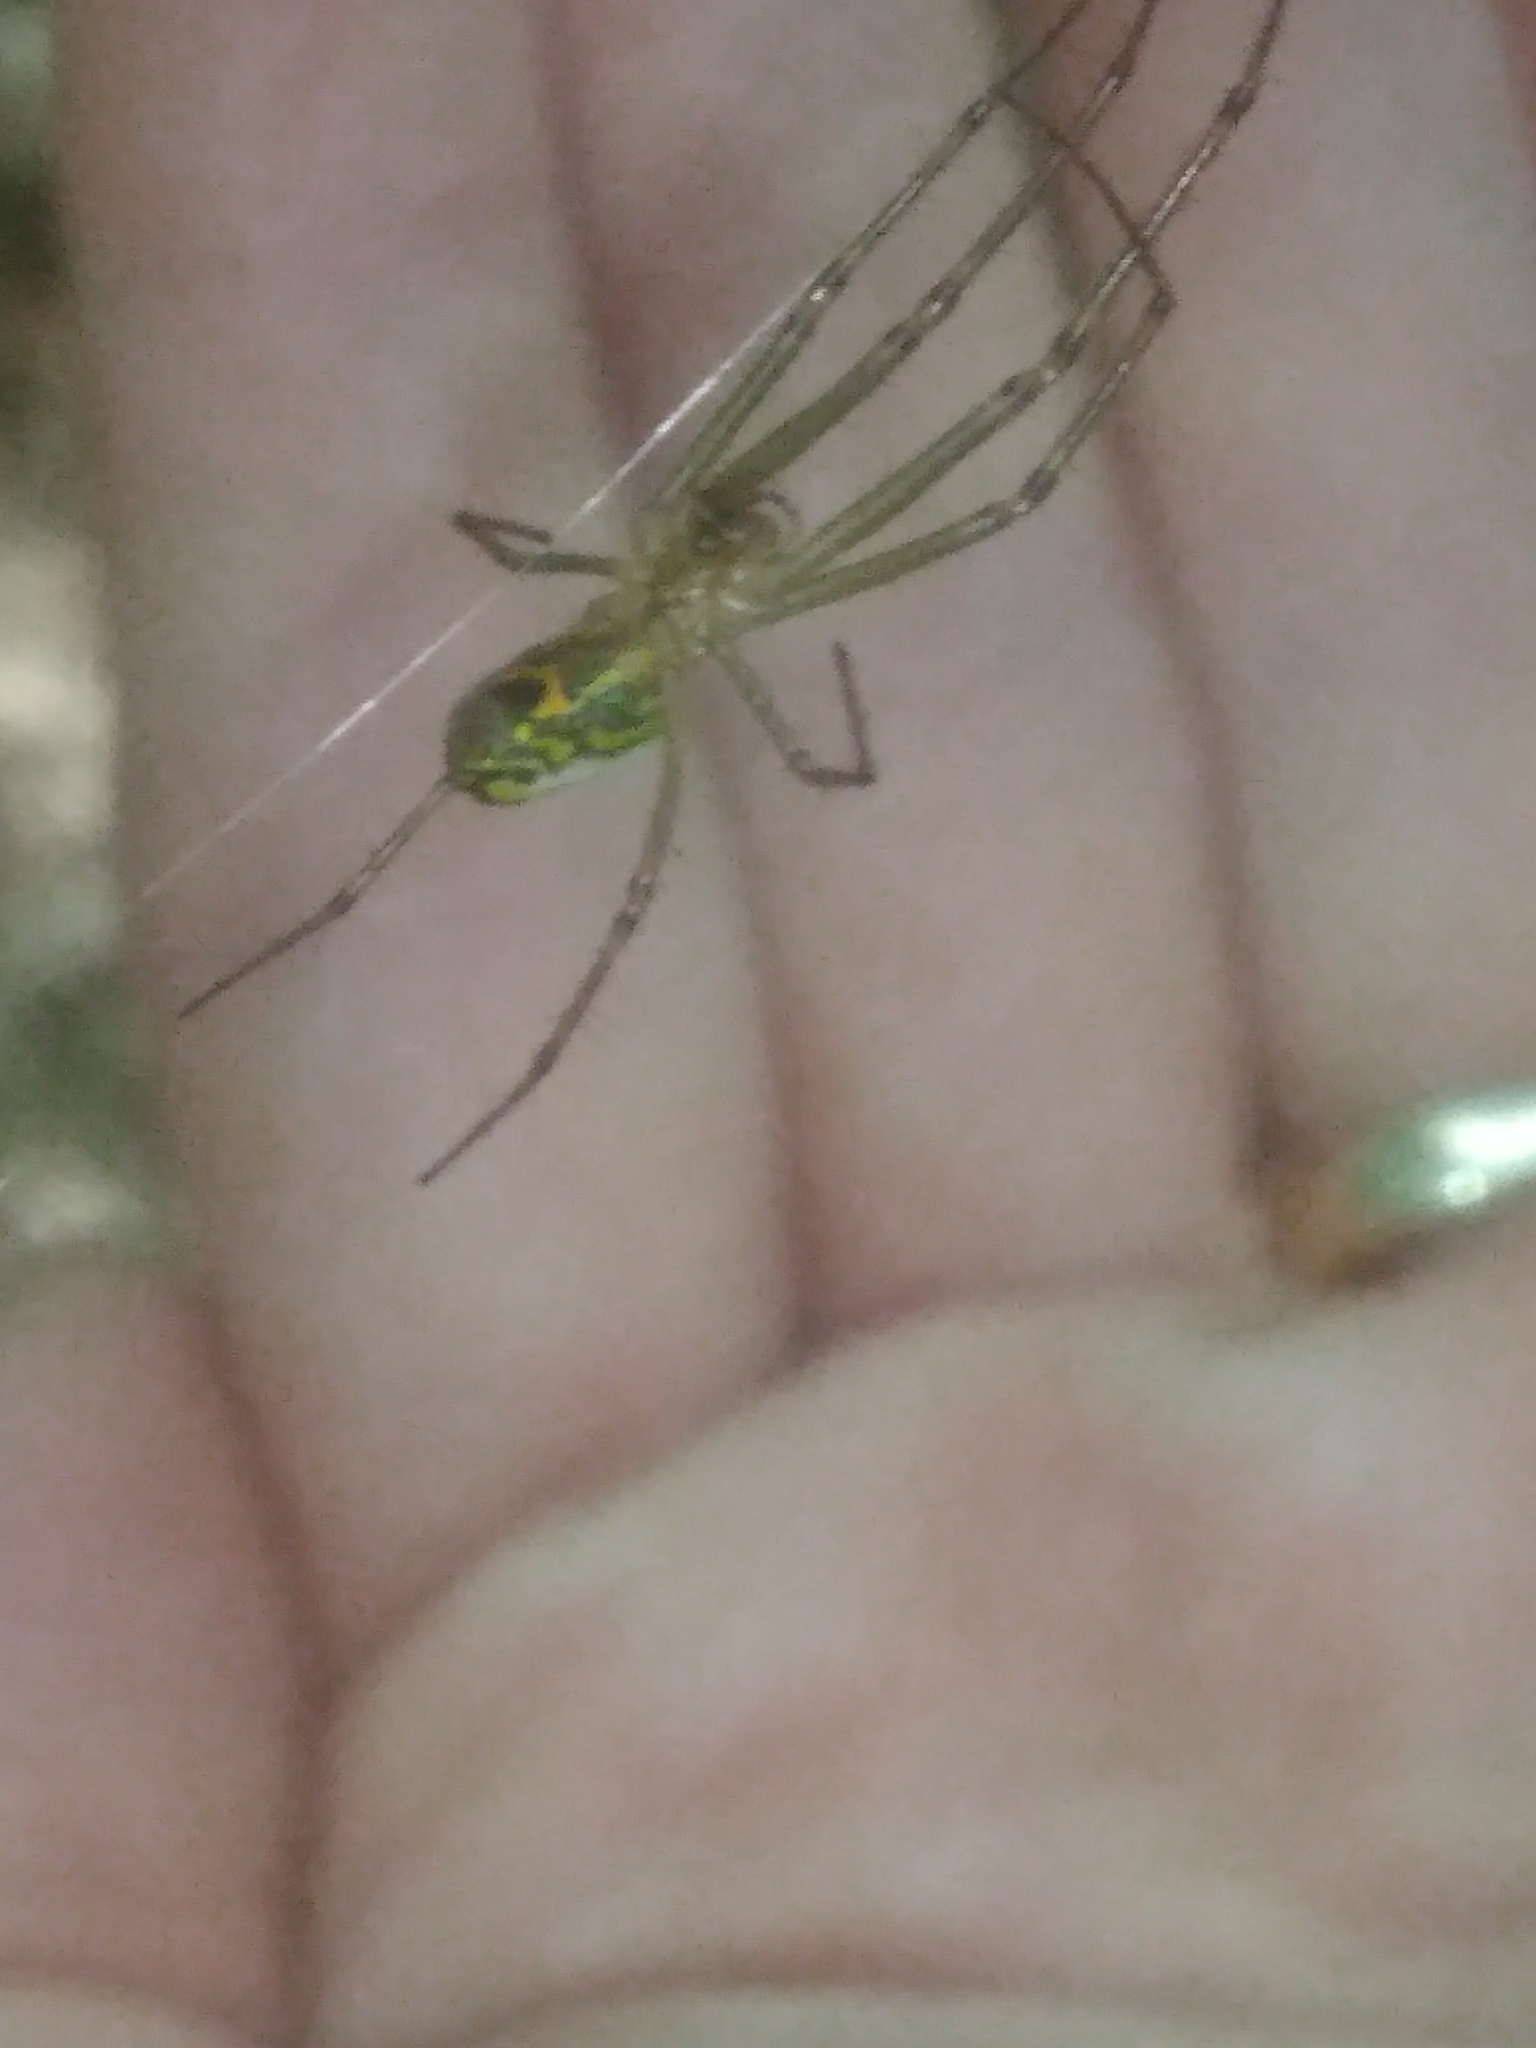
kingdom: Animalia
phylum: Arthropoda
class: Arachnida
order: Araneae
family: Tetragnathidae
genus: Leucauge
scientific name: Leucauge venusta
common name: Longjawed orb weavers
